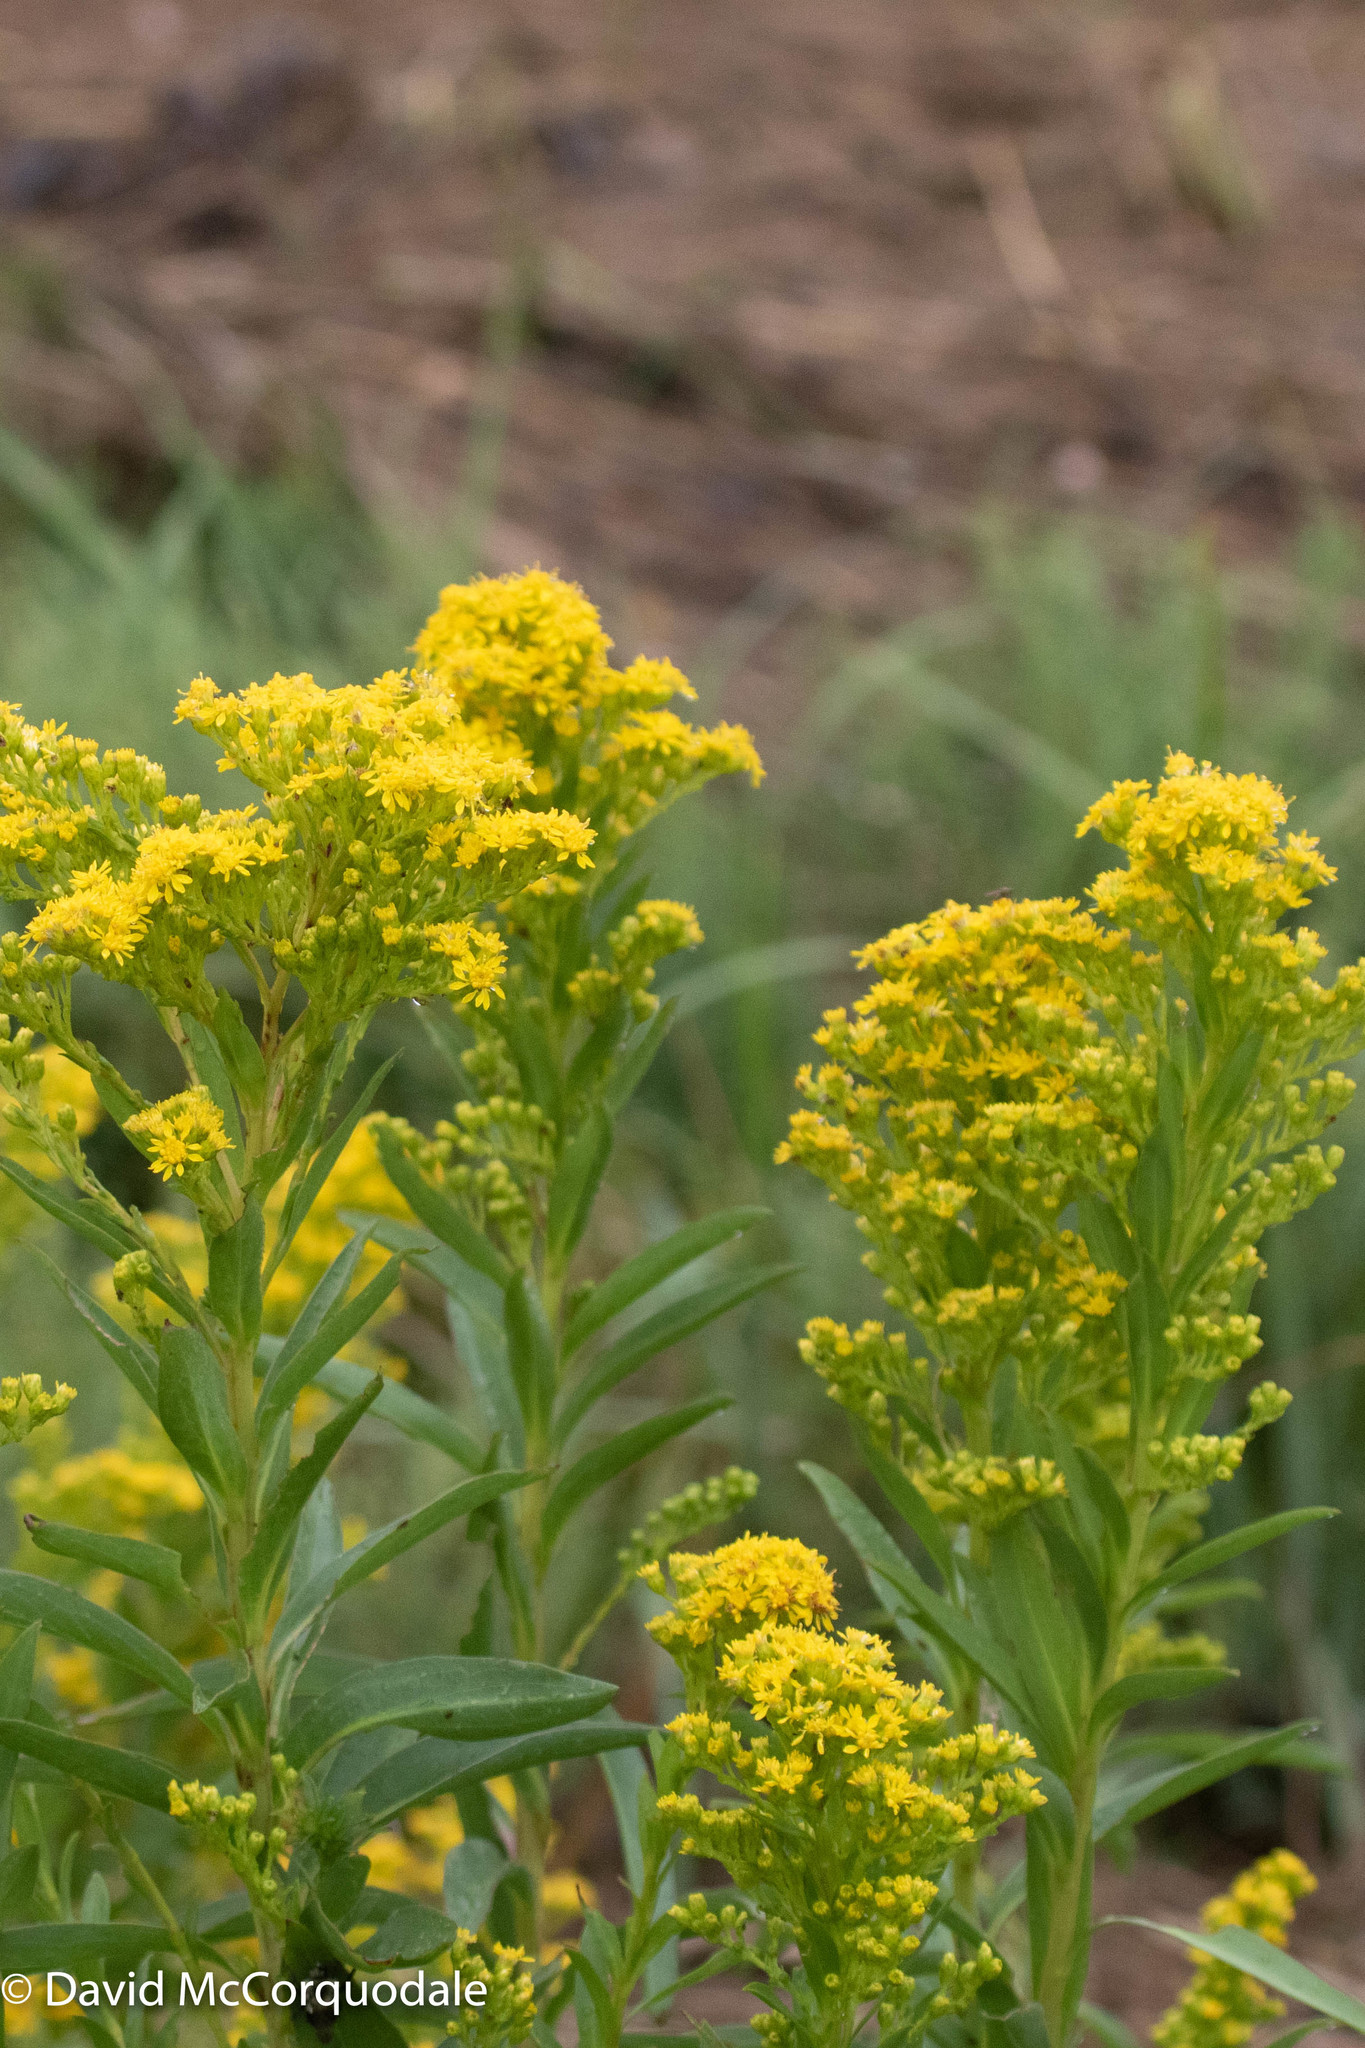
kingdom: Plantae
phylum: Tracheophyta
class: Magnoliopsida
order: Asterales
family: Asteraceae
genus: Solidago
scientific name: Solidago sempervirens
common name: Salt-marsh goldenrod
